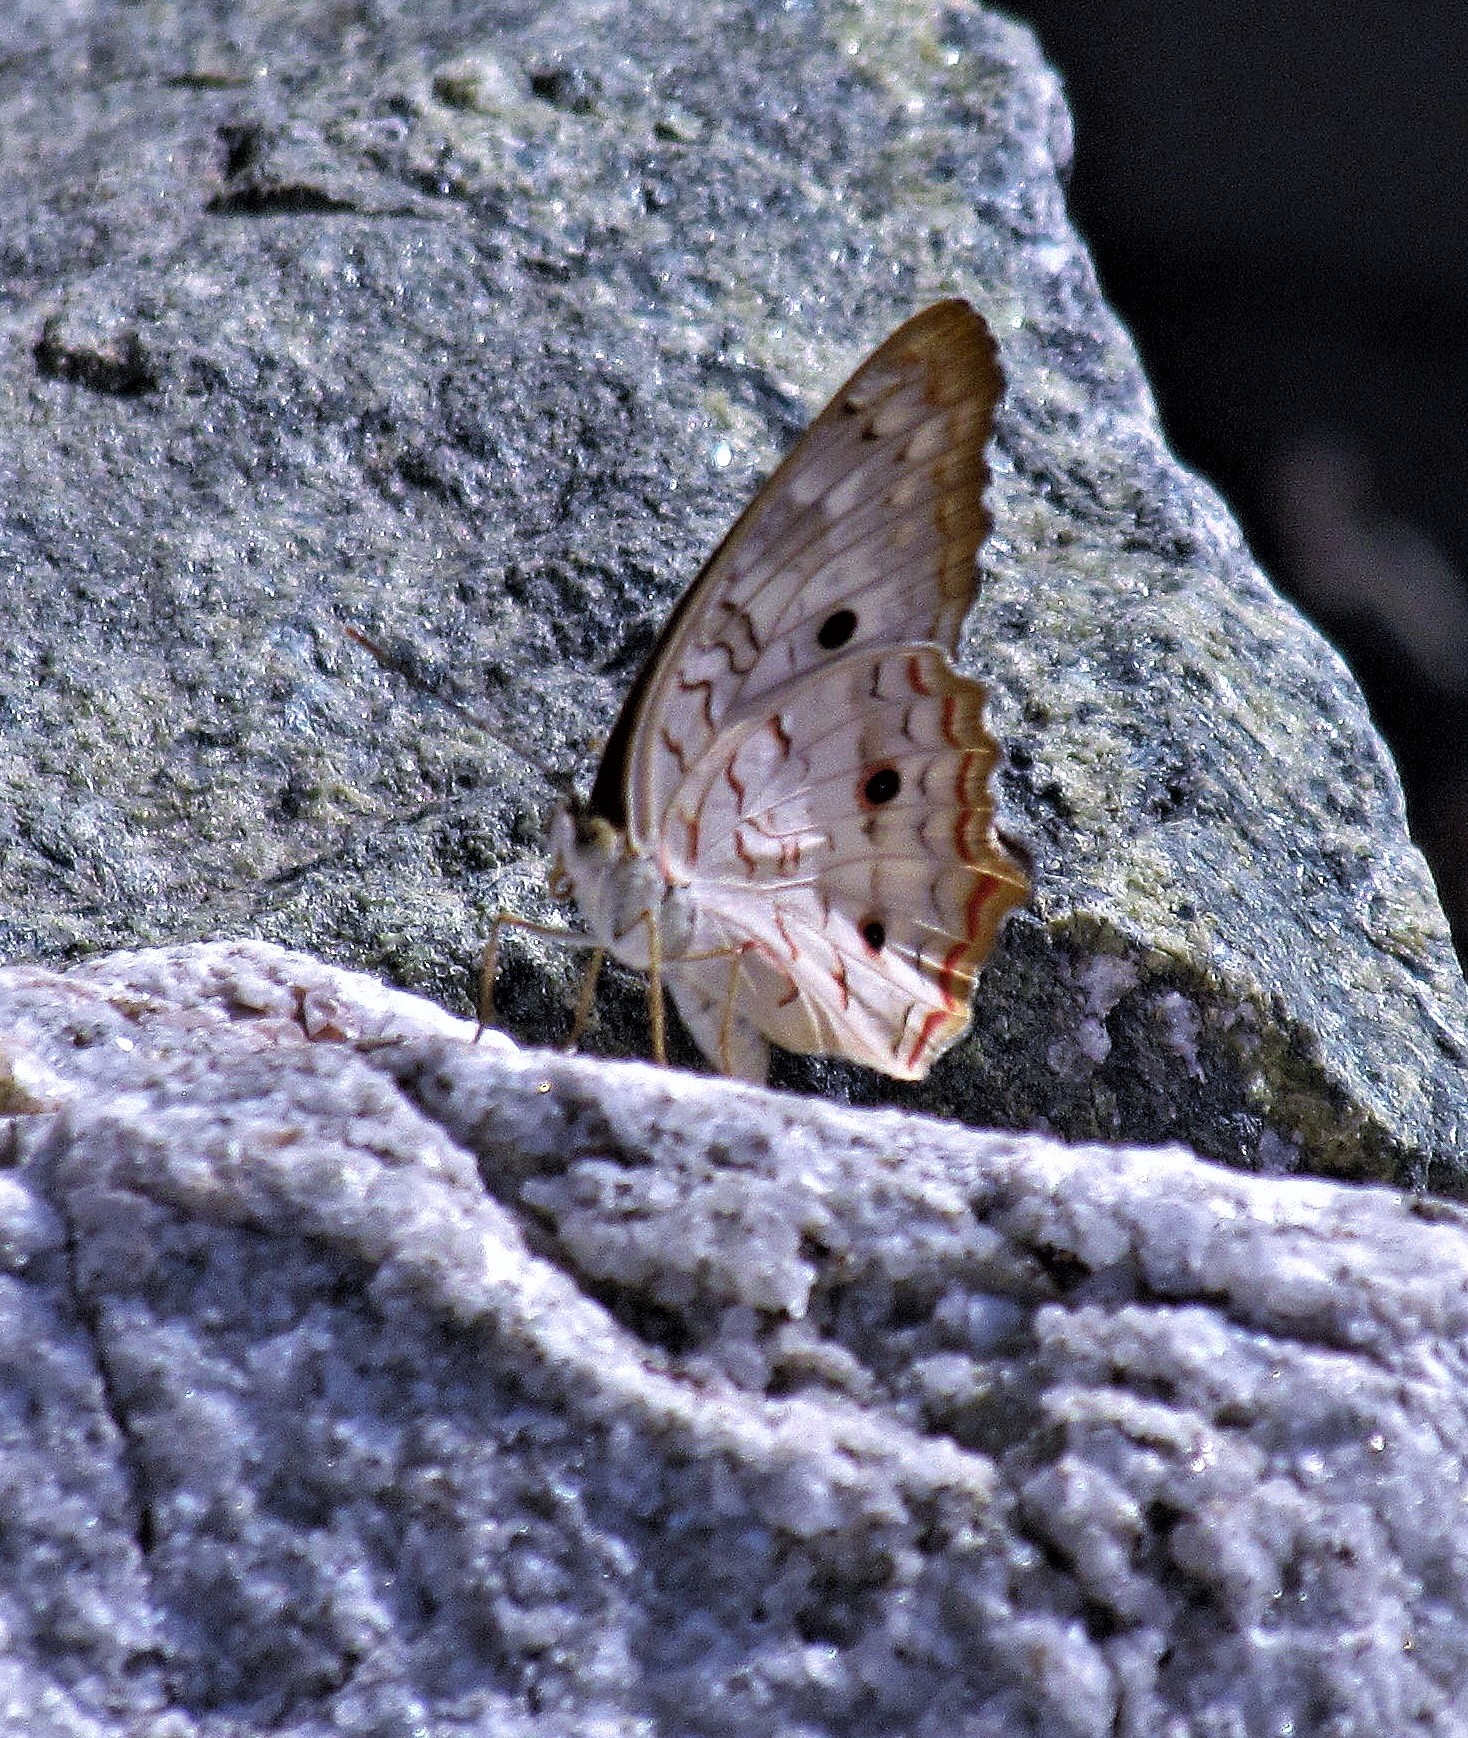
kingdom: Animalia
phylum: Arthropoda
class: Insecta
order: Lepidoptera
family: Nymphalidae
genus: Anartia
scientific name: Anartia jatrophae
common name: White peacock
